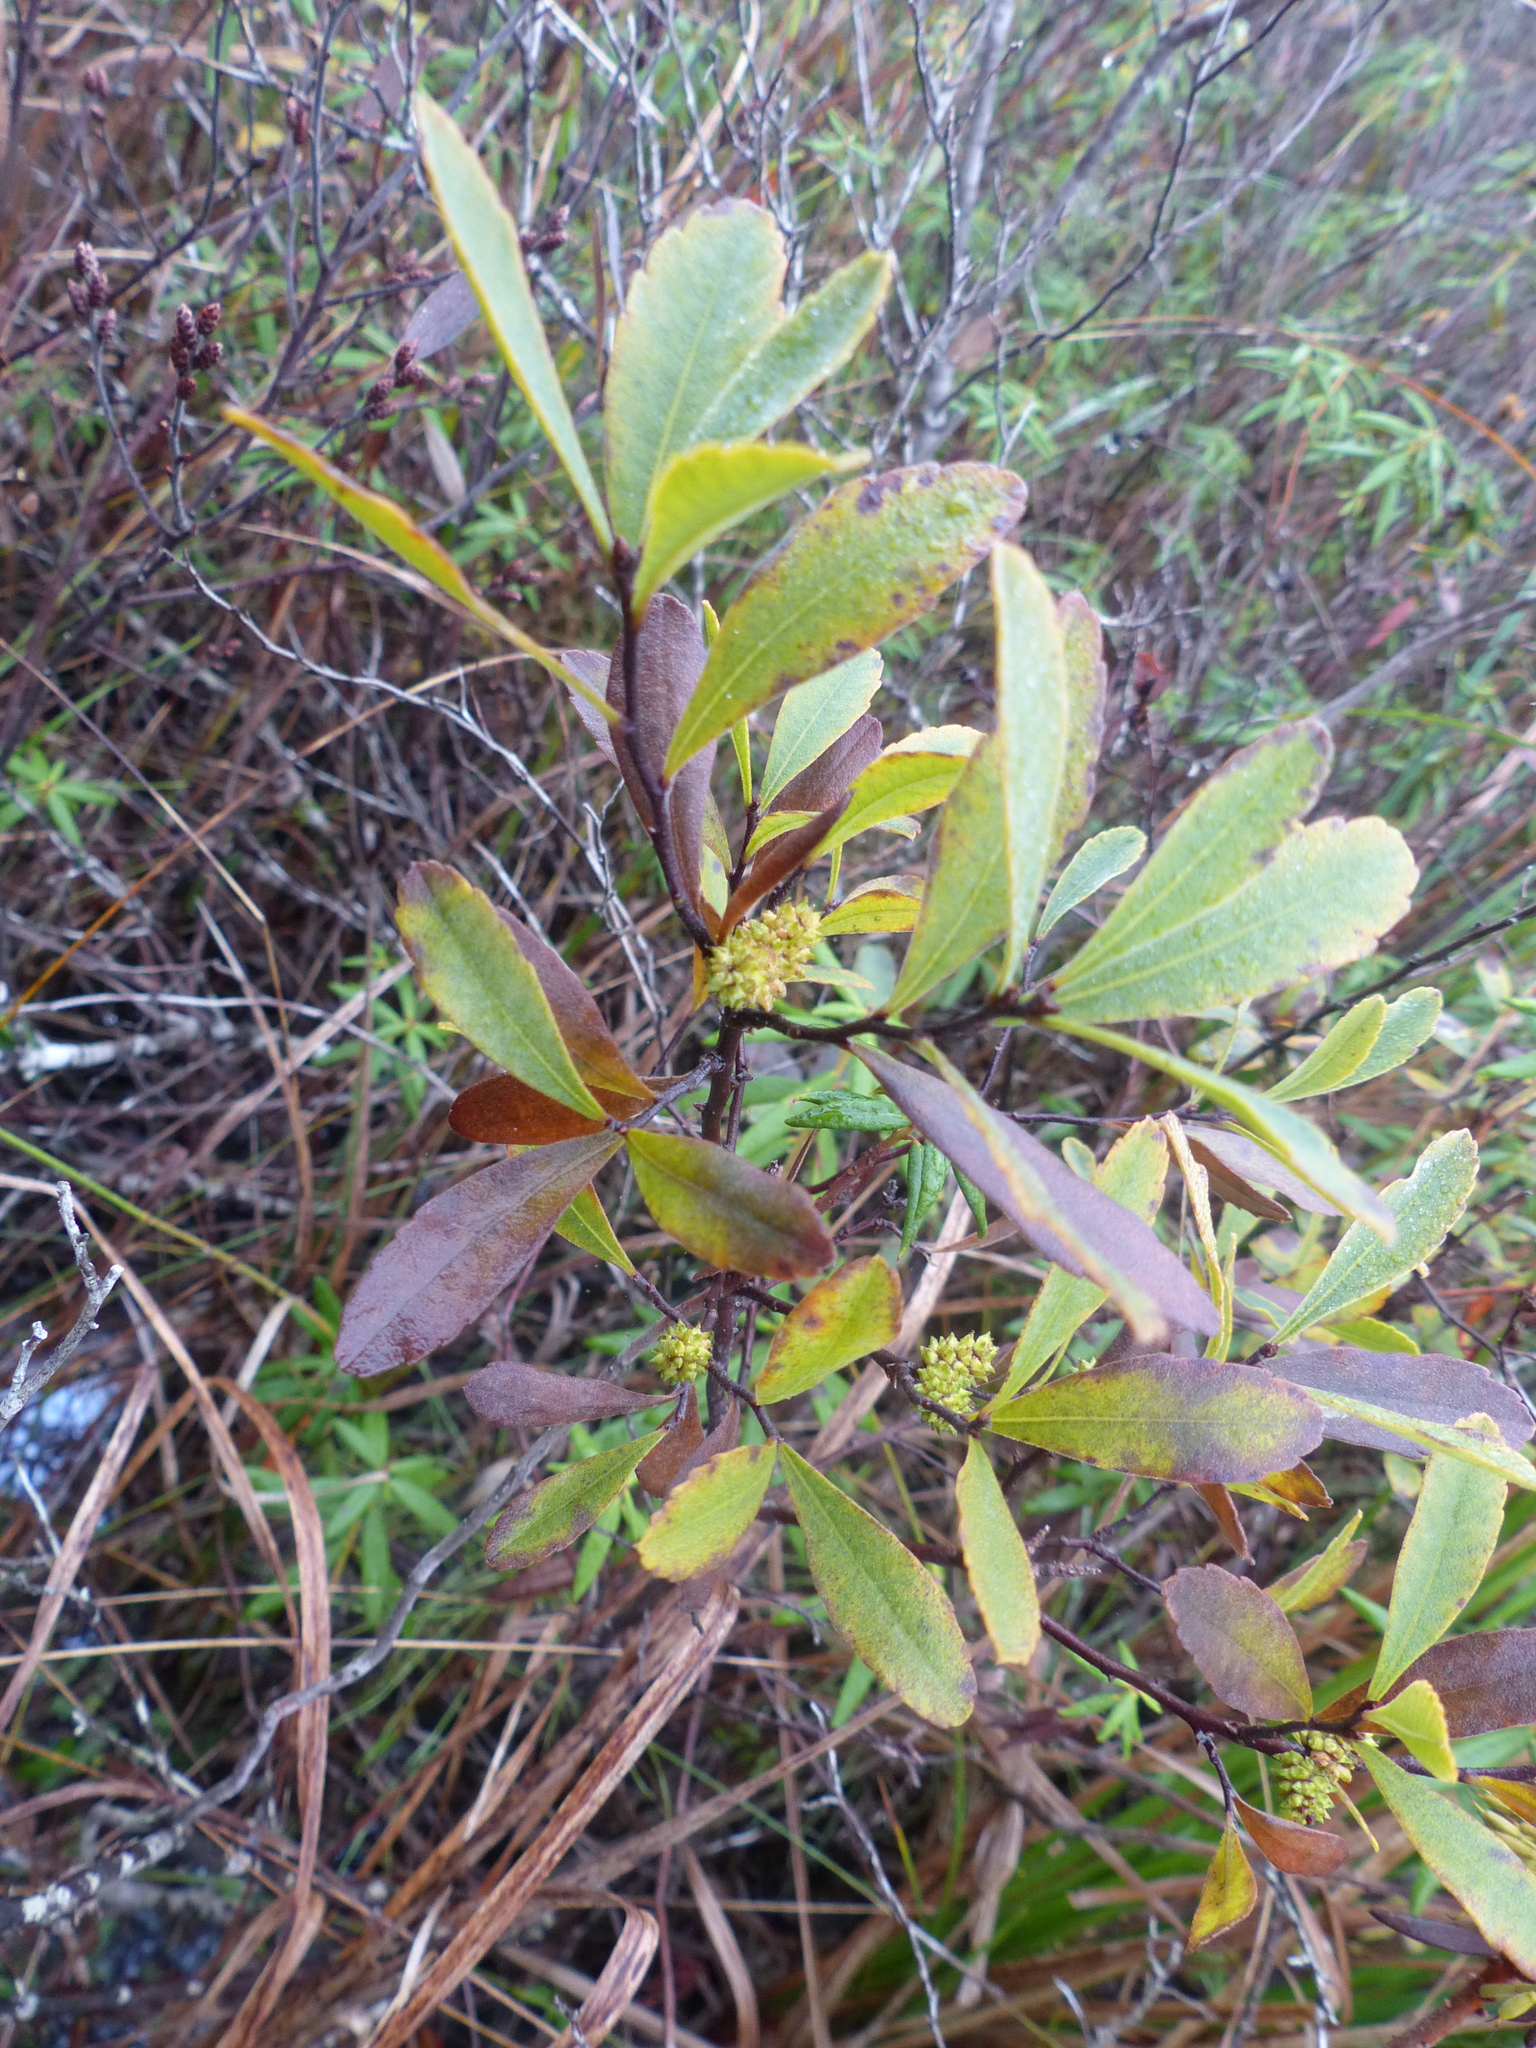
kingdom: Plantae
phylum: Tracheophyta
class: Magnoliopsida
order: Fagales
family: Myricaceae
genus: Myrica
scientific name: Myrica gale
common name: Sweet gale
